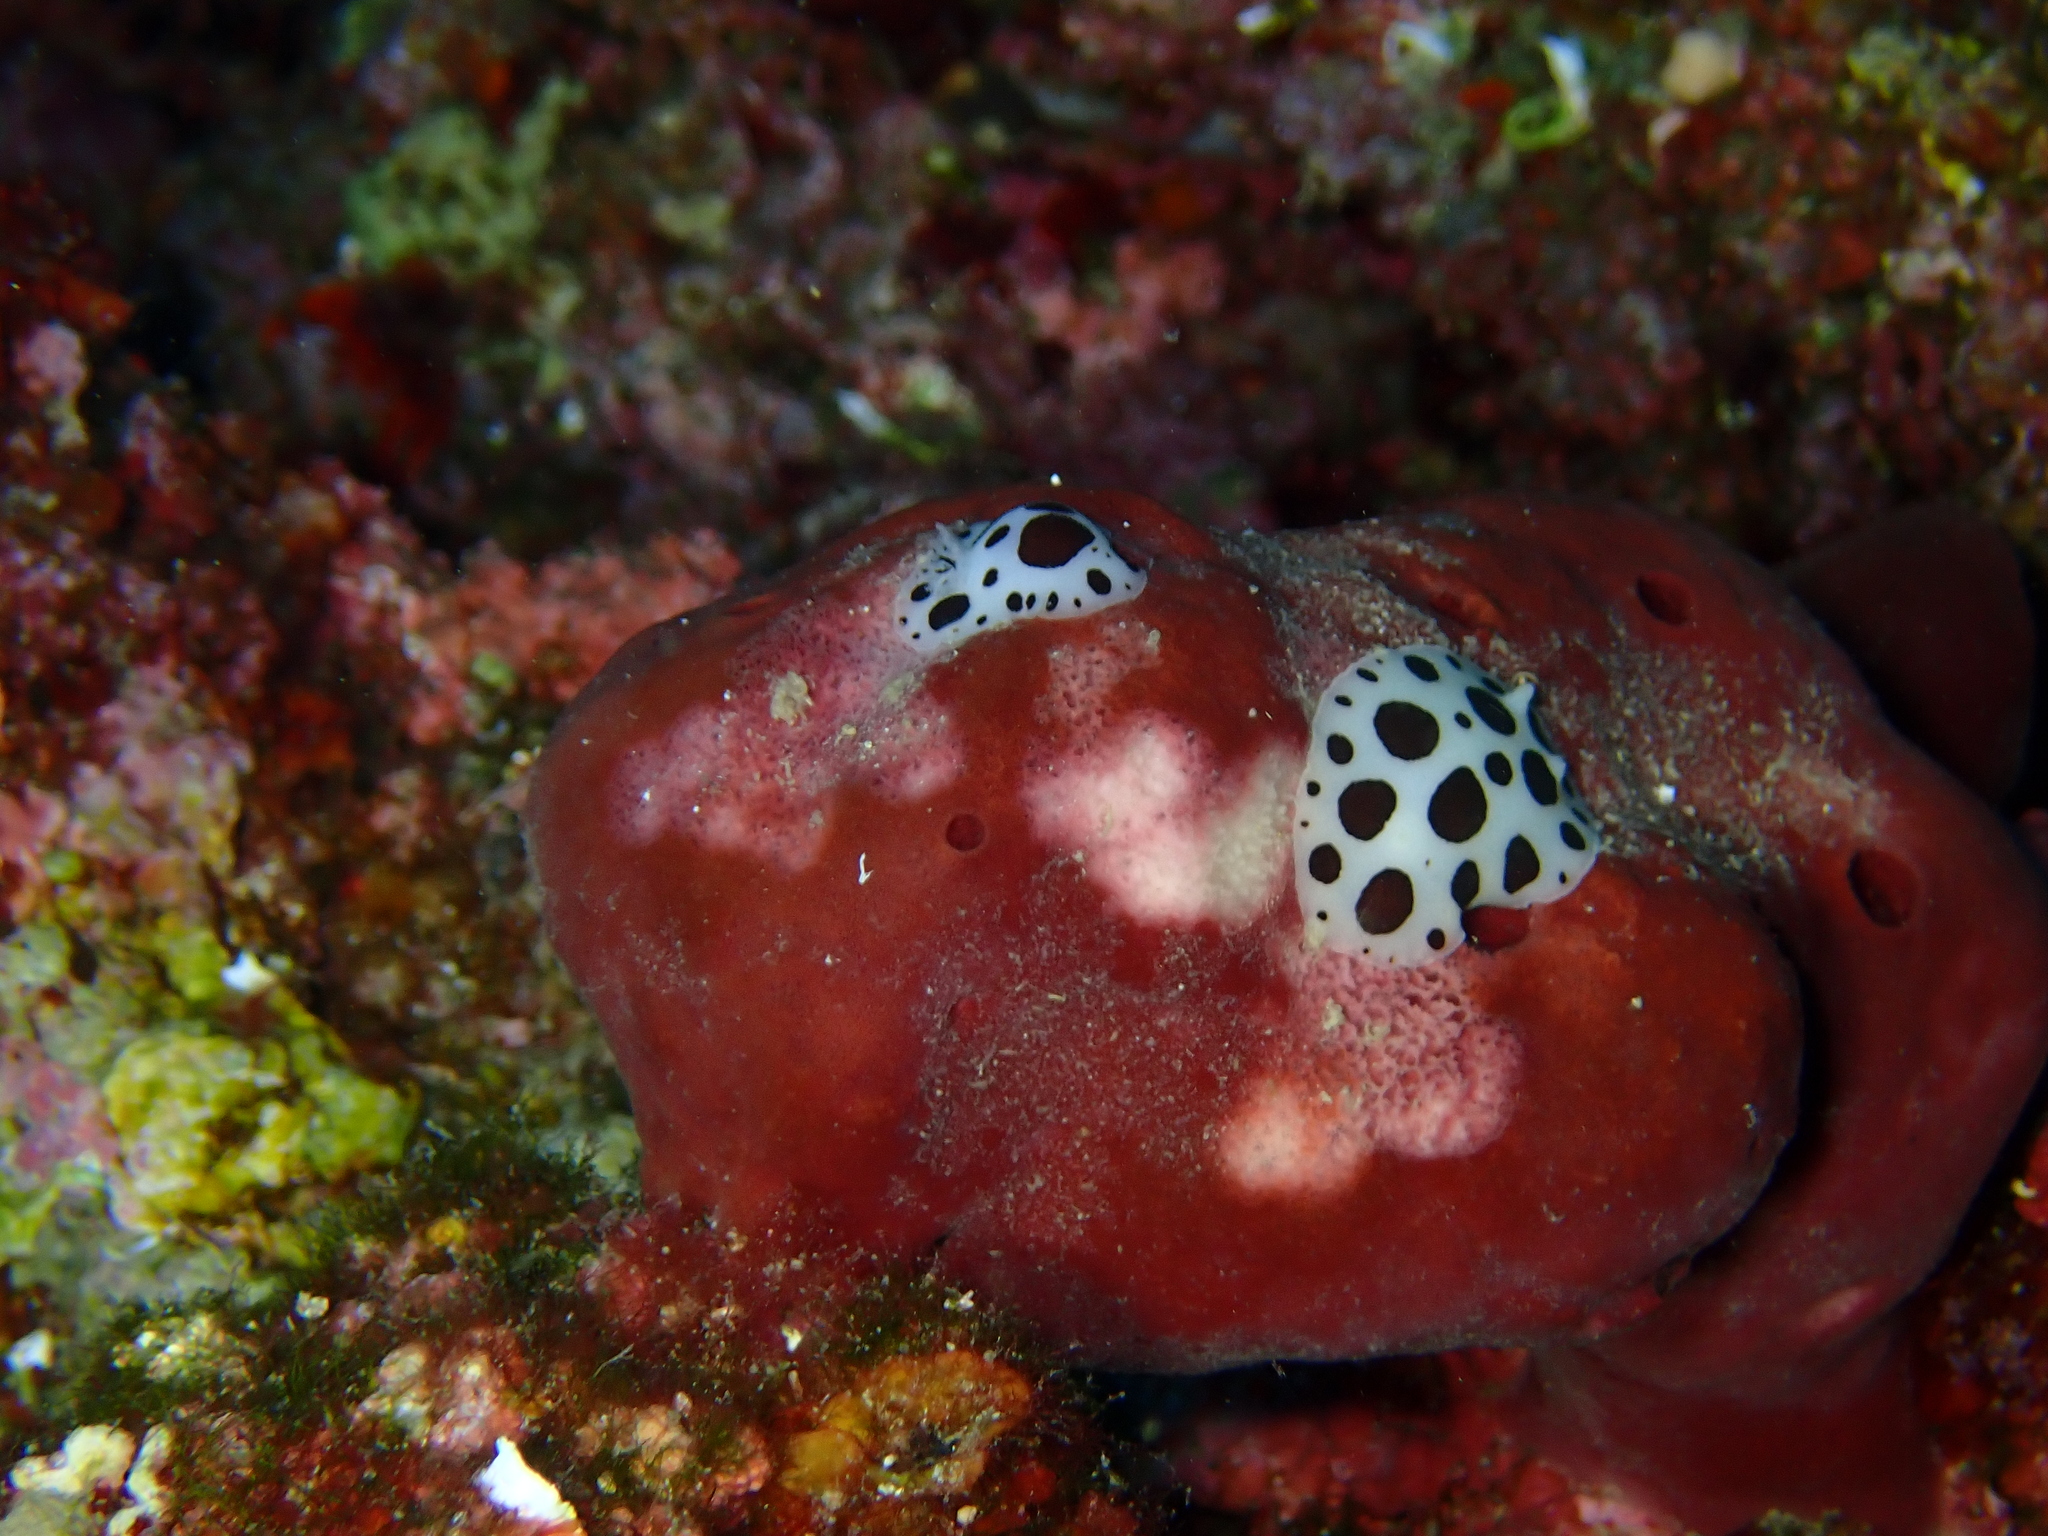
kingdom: Animalia
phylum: Mollusca
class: Gastropoda
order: Nudibranchia
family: Discodorididae
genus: Peltodoris
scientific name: Peltodoris atromaculata
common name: Swiss cow nudibranch
